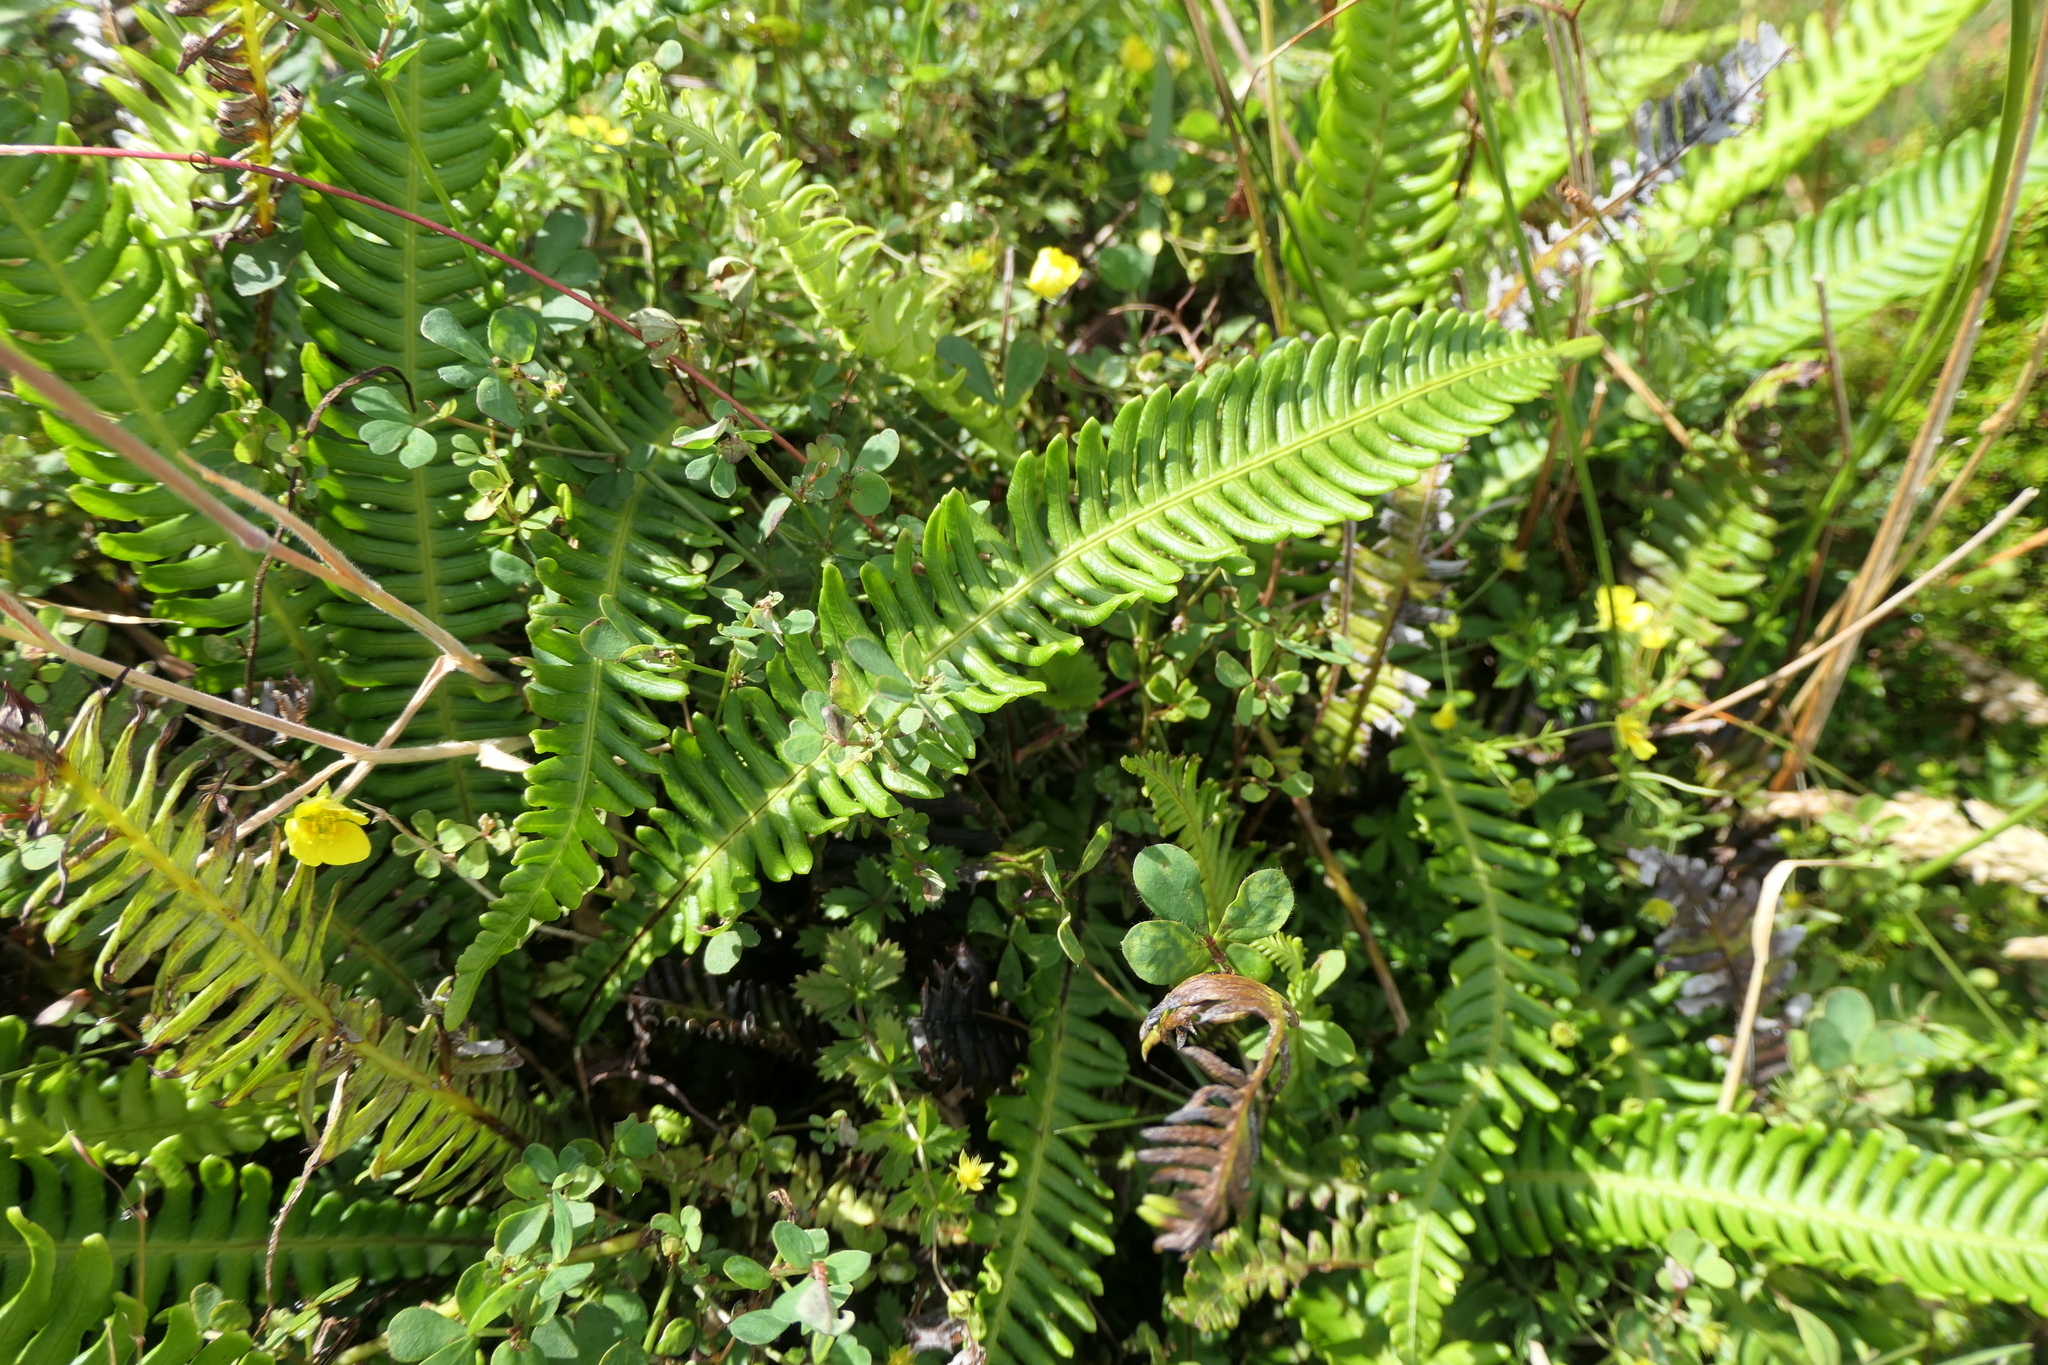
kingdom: Plantae
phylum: Tracheophyta
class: Polypodiopsida
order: Polypodiales
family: Blechnaceae
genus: Struthiopteris
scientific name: Struthiopteris spicant
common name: Deer fern
